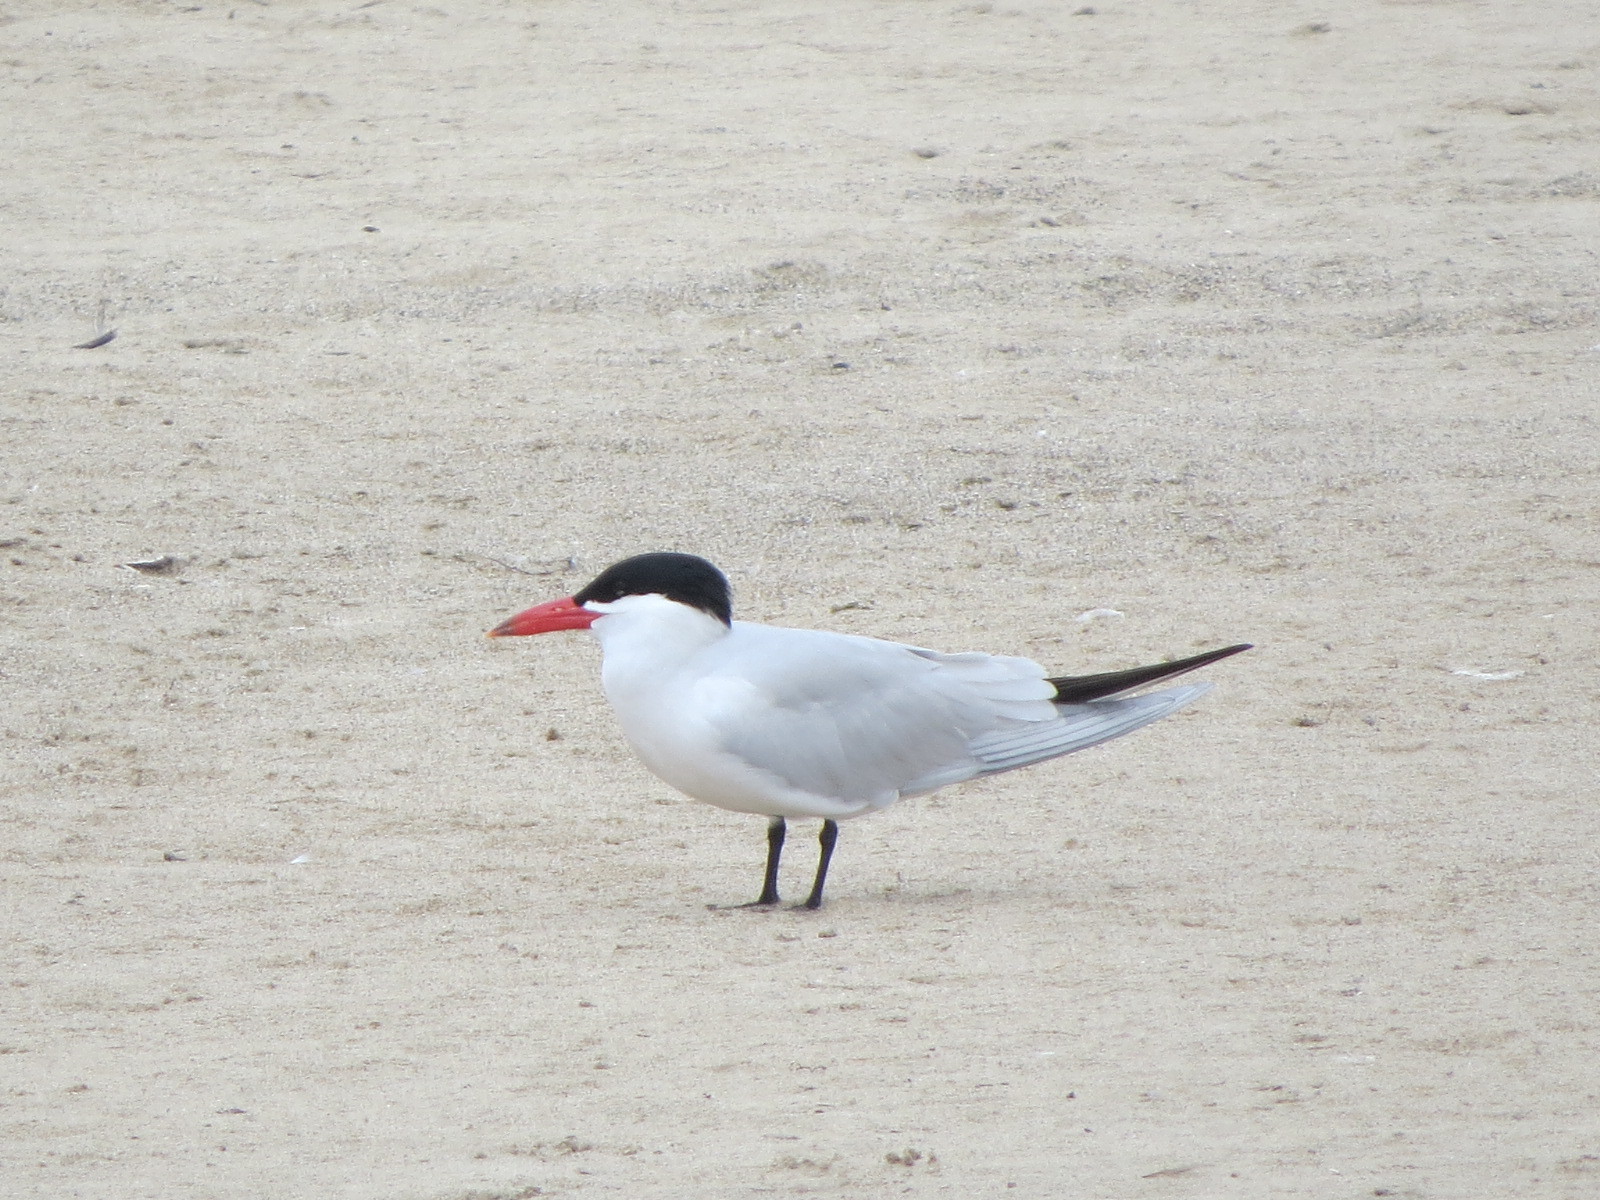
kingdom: Animalia
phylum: Chordata
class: Aves
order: Charadriiformes
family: Laridae
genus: Hydroprogne
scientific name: Hydroprogne caspia
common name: Caspian tern
